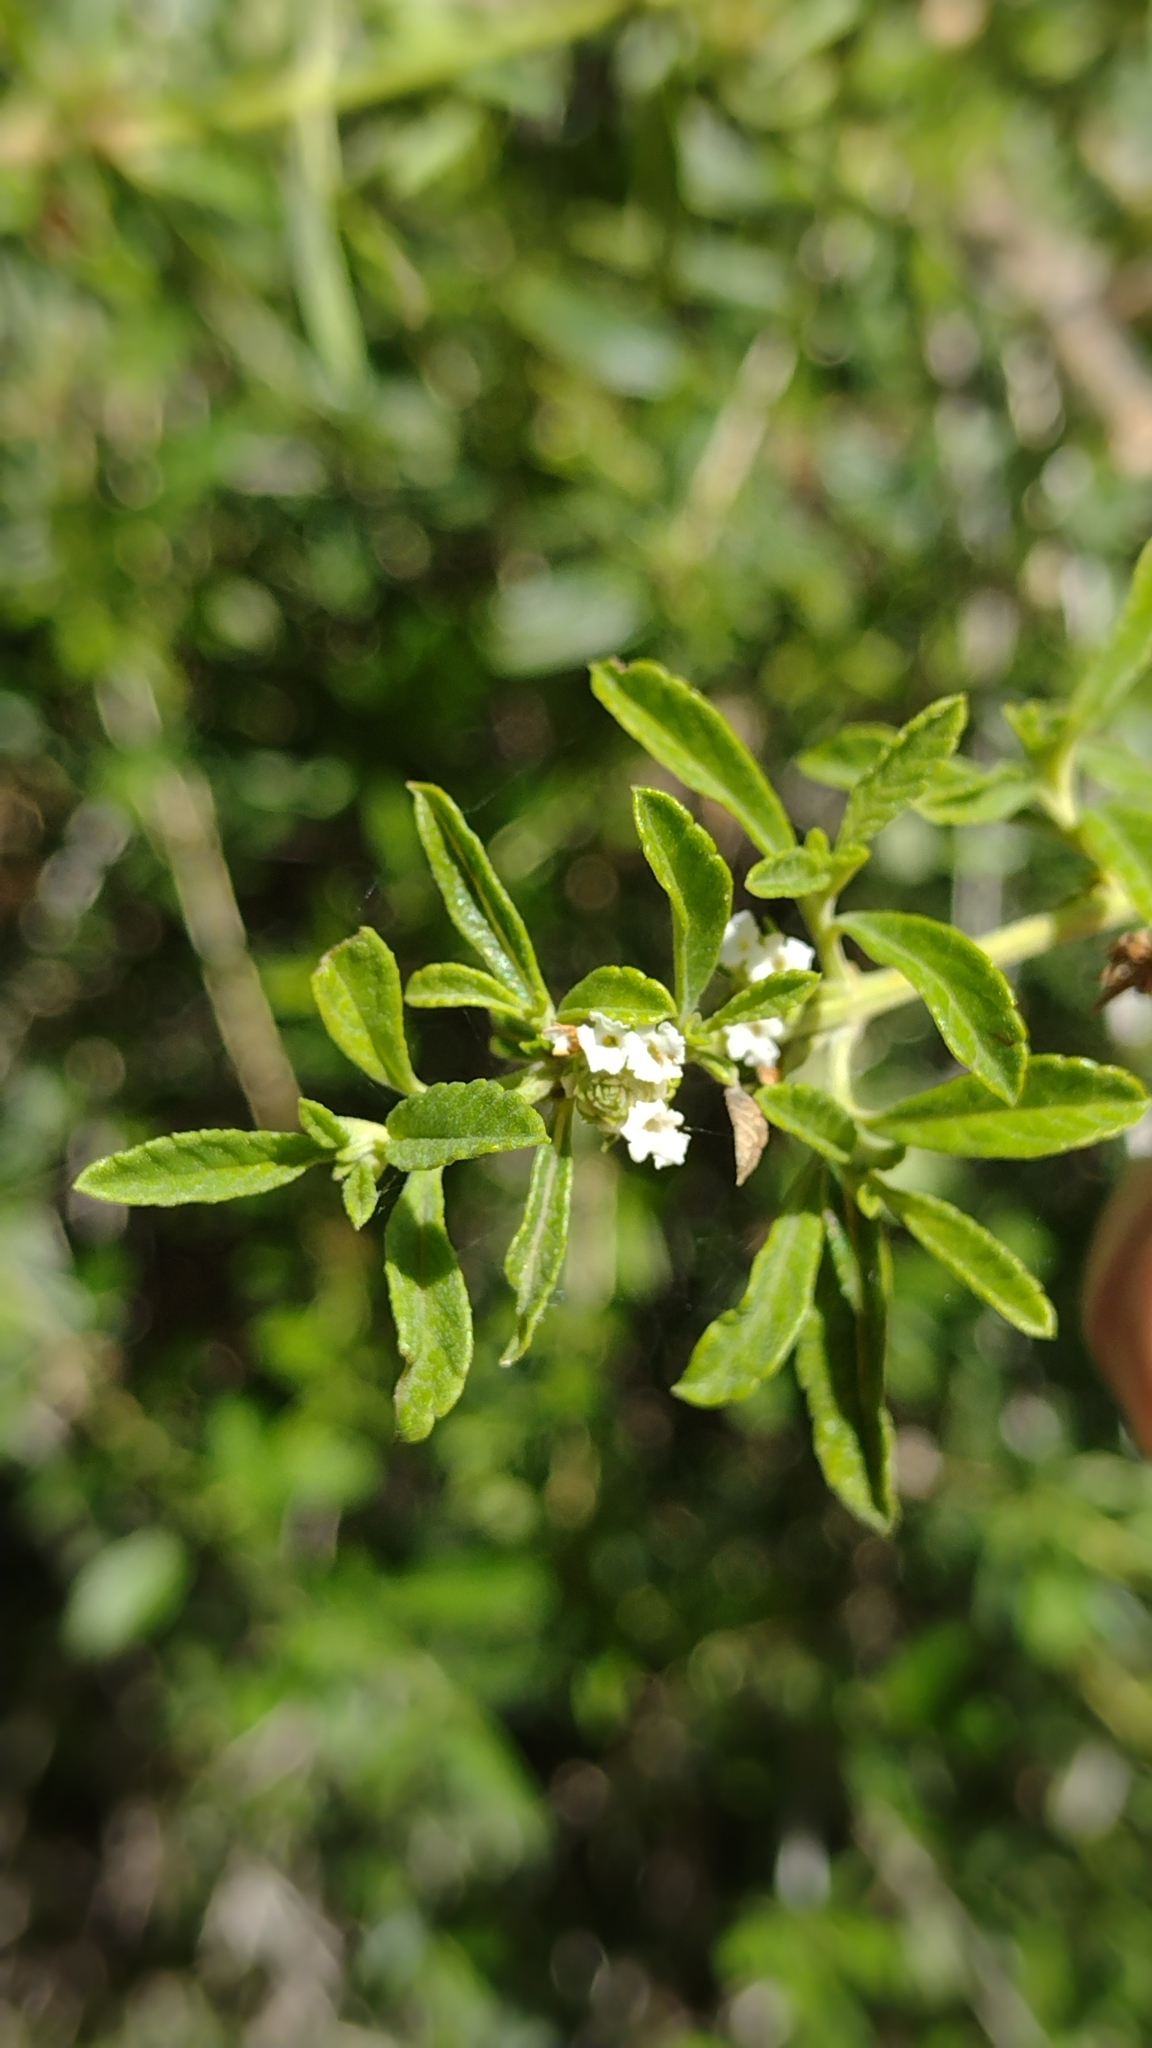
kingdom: Plantae
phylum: Tracheophyta
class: Magnoliopsida
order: Lamiales
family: Verbenaceae
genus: Lippia
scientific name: Lippia turbinata
